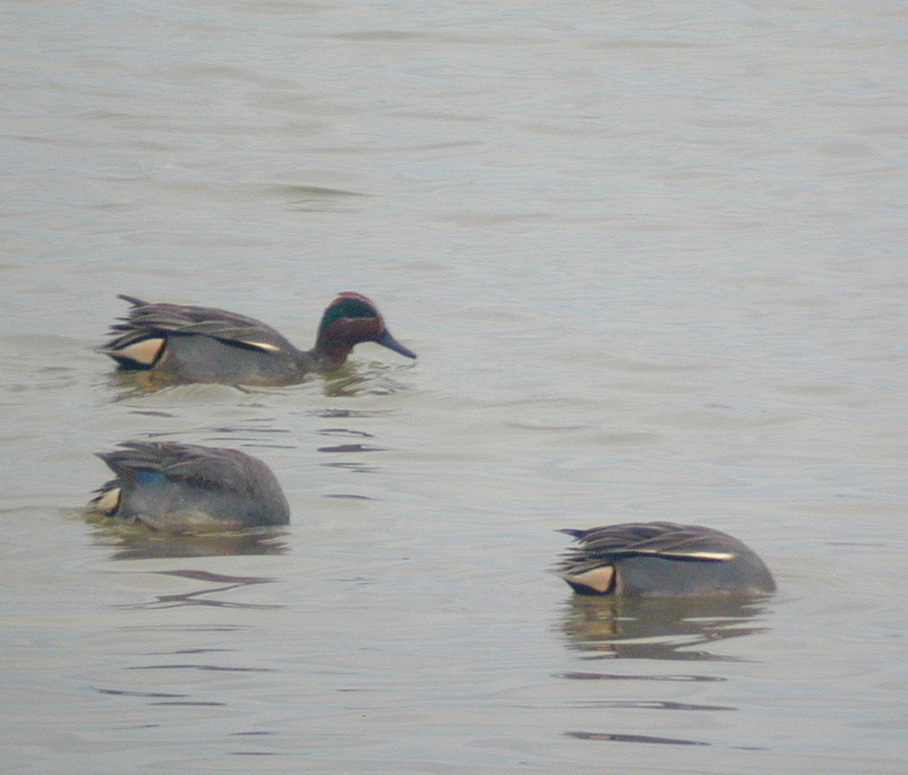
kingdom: Animalia
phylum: Chordata
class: Aves
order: Anseriformes
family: Anatidae
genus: Anas
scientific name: Anas crecca
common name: Eurasian teal
